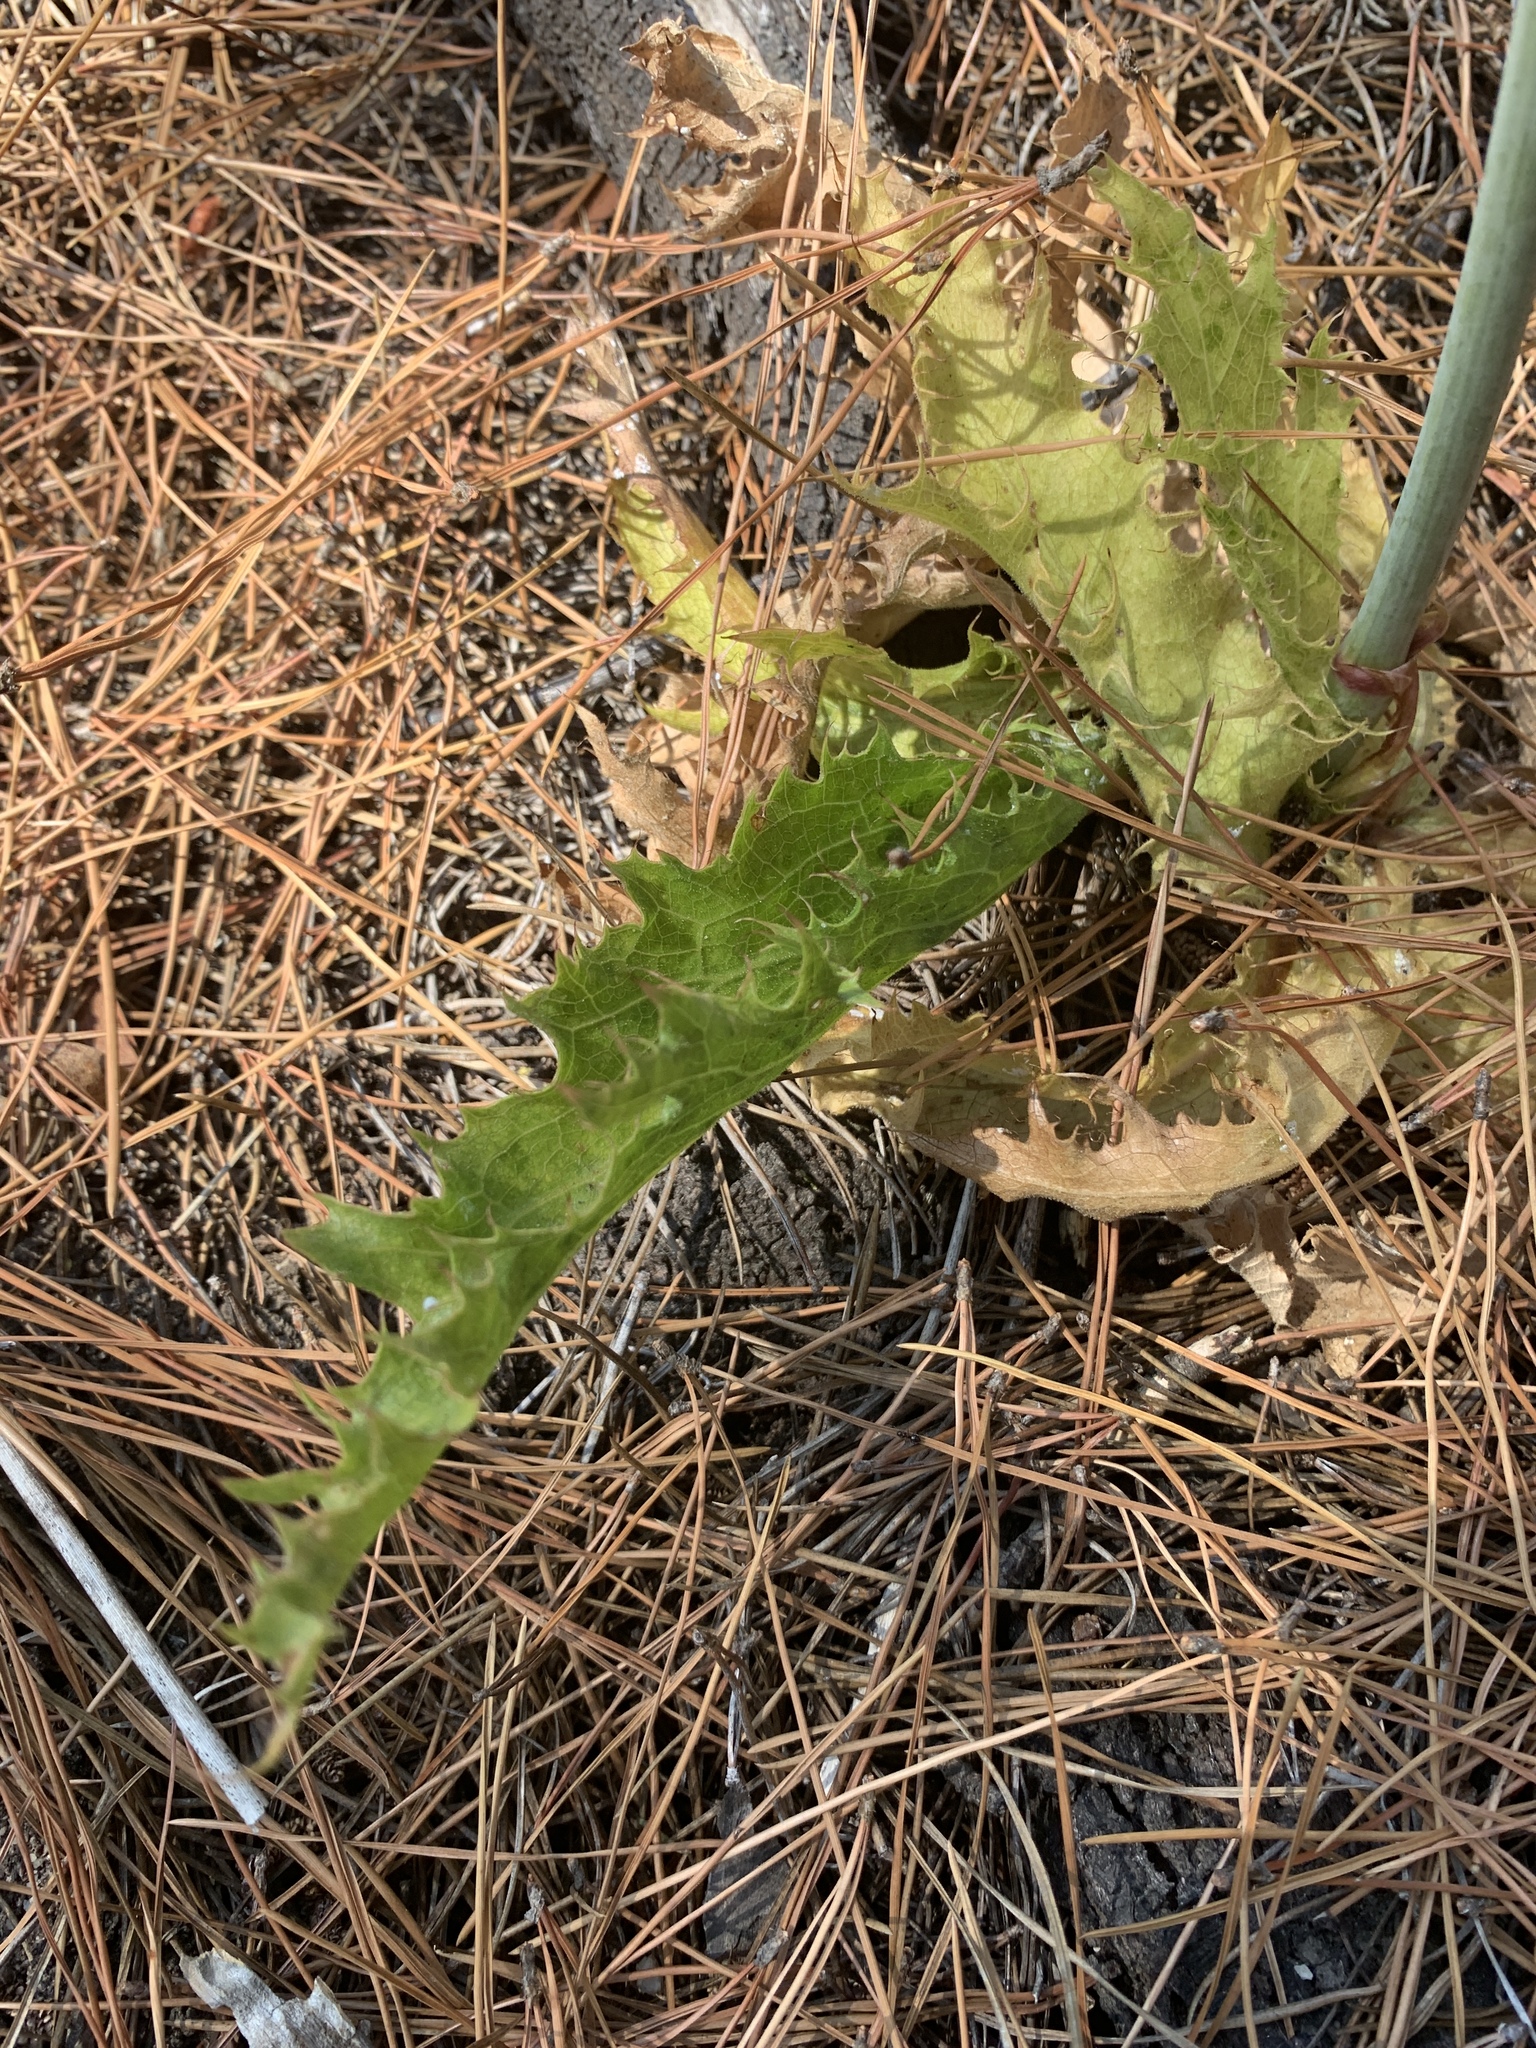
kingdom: Plantae
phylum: Tracheophyta
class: Magnoliopsida
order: Apiales
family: Apiaceae
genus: Lichtensteinia
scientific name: Lichtensteinia lacera
